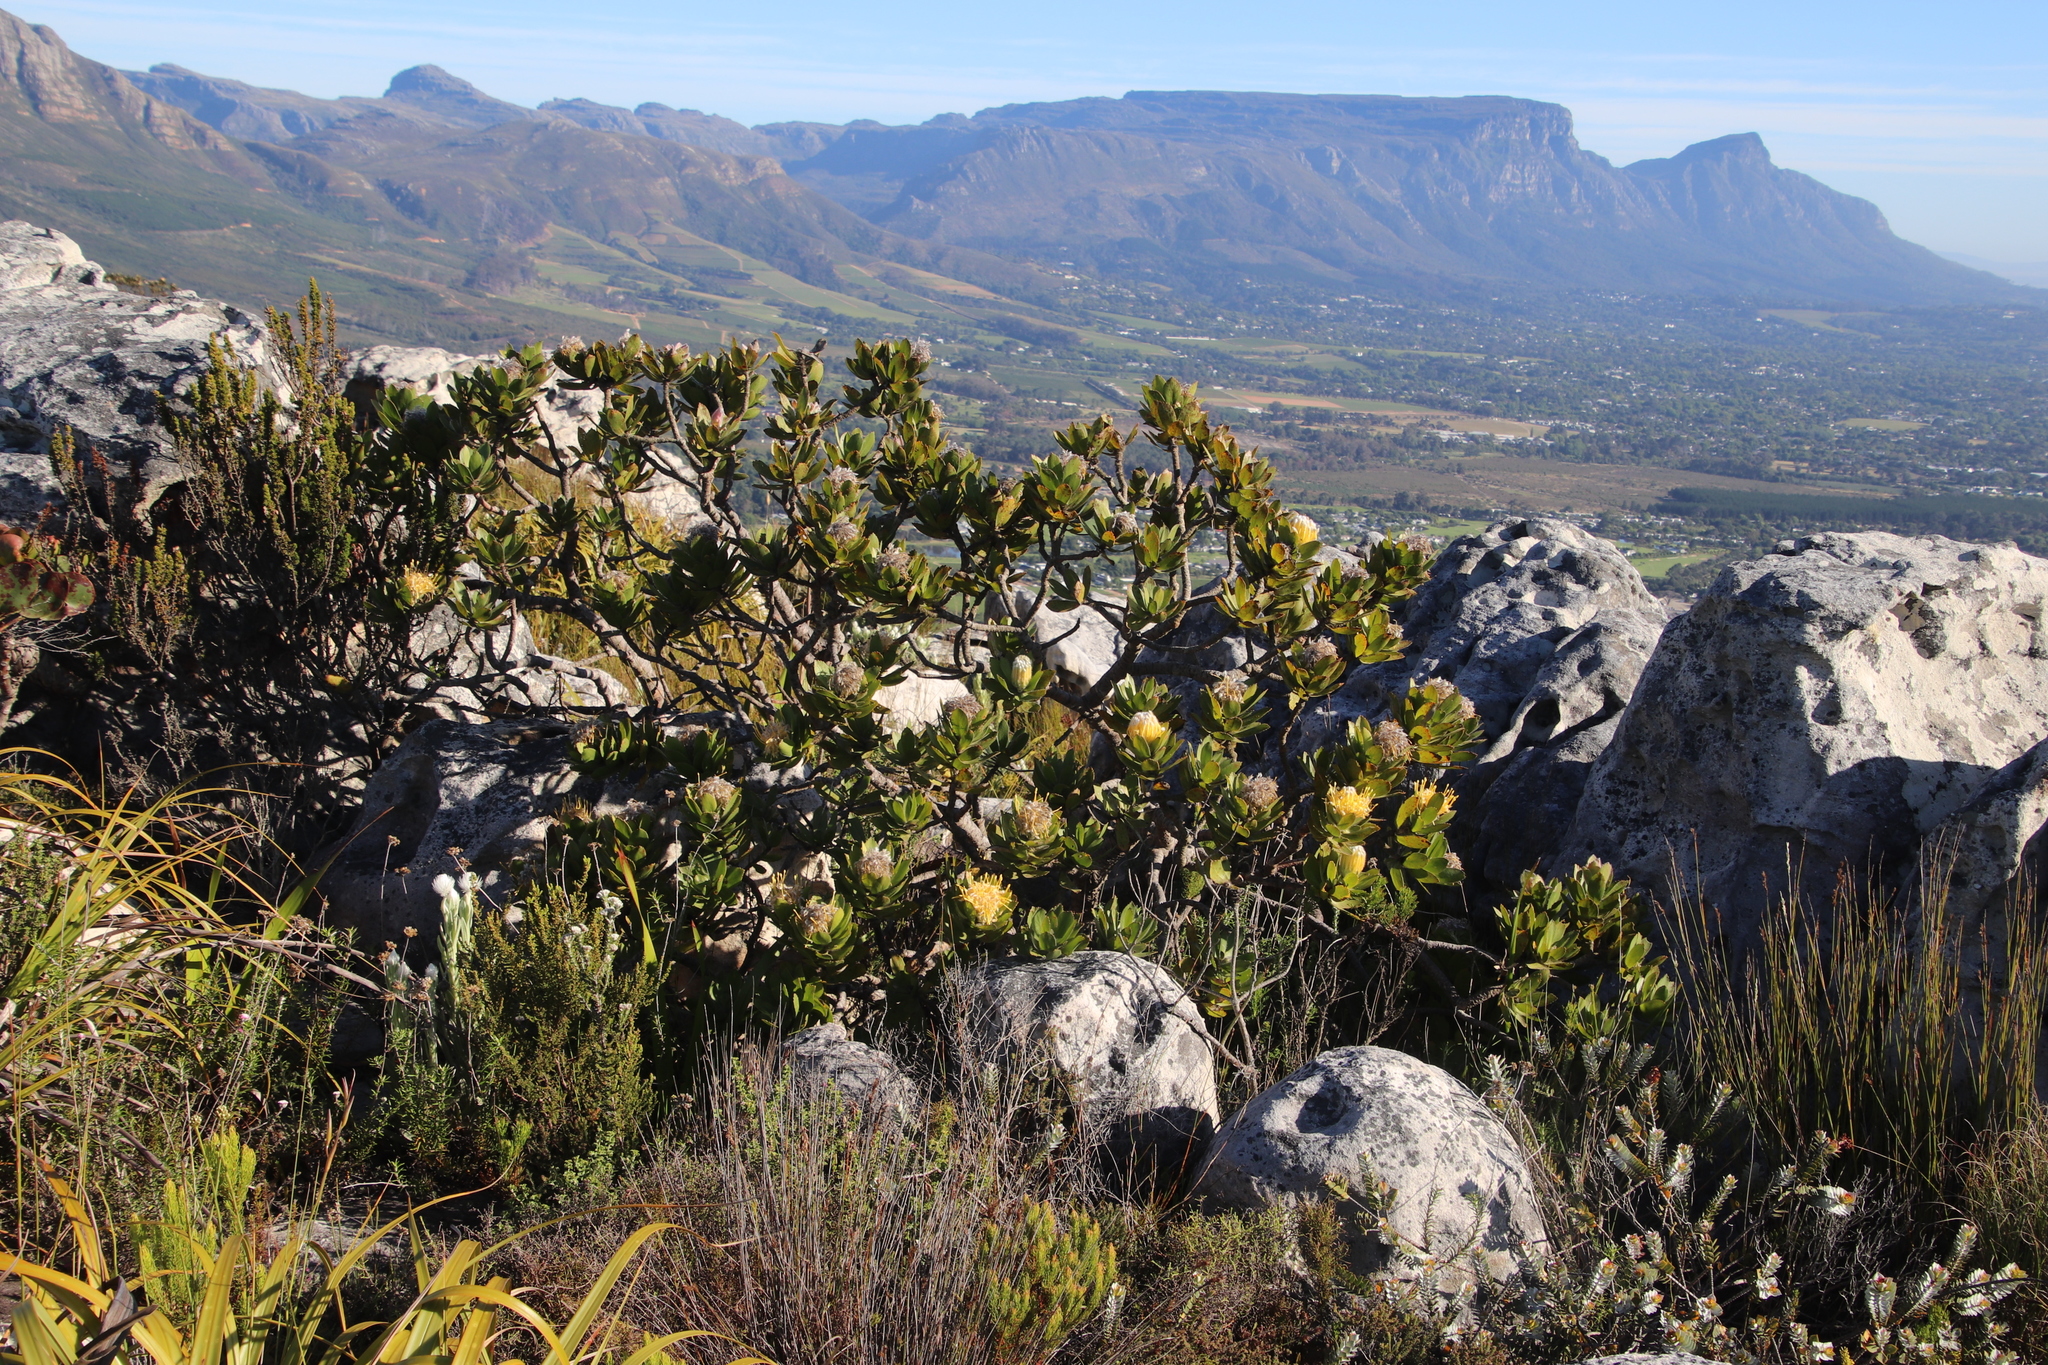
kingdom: Plantae
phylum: Tracheophyta
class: Magnoliopsida
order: Proteales
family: Proteaceae
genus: Leucospermum
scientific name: Leucospermum conocarpodendron
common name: Tree pincushion
